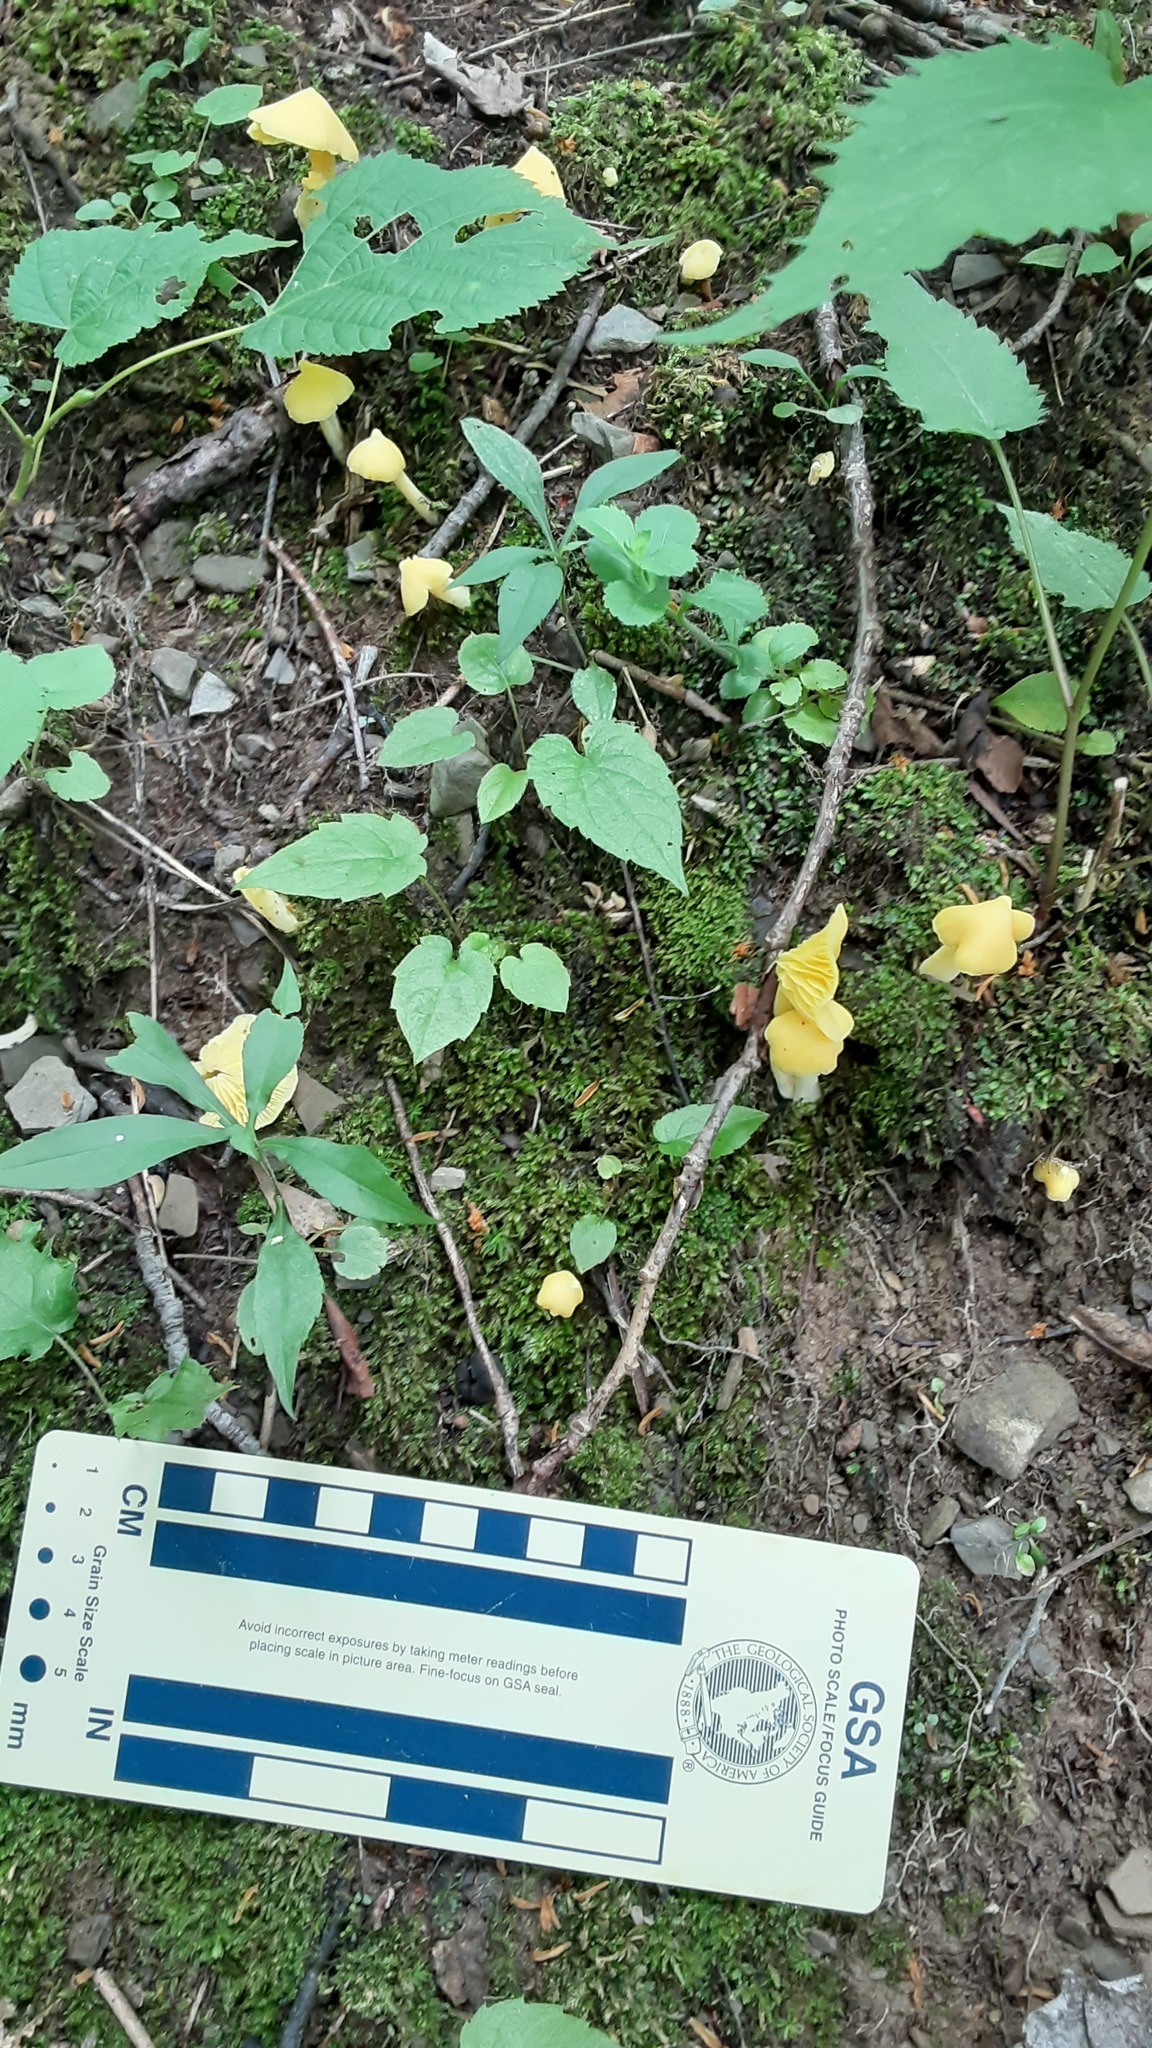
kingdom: Fungi
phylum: Basidiomycota
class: Agaricomycetes
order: Agaricales
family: Entolomataceae
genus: Entoloma
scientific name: Entoloma murrayi
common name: Yellow unicorn entoloma
